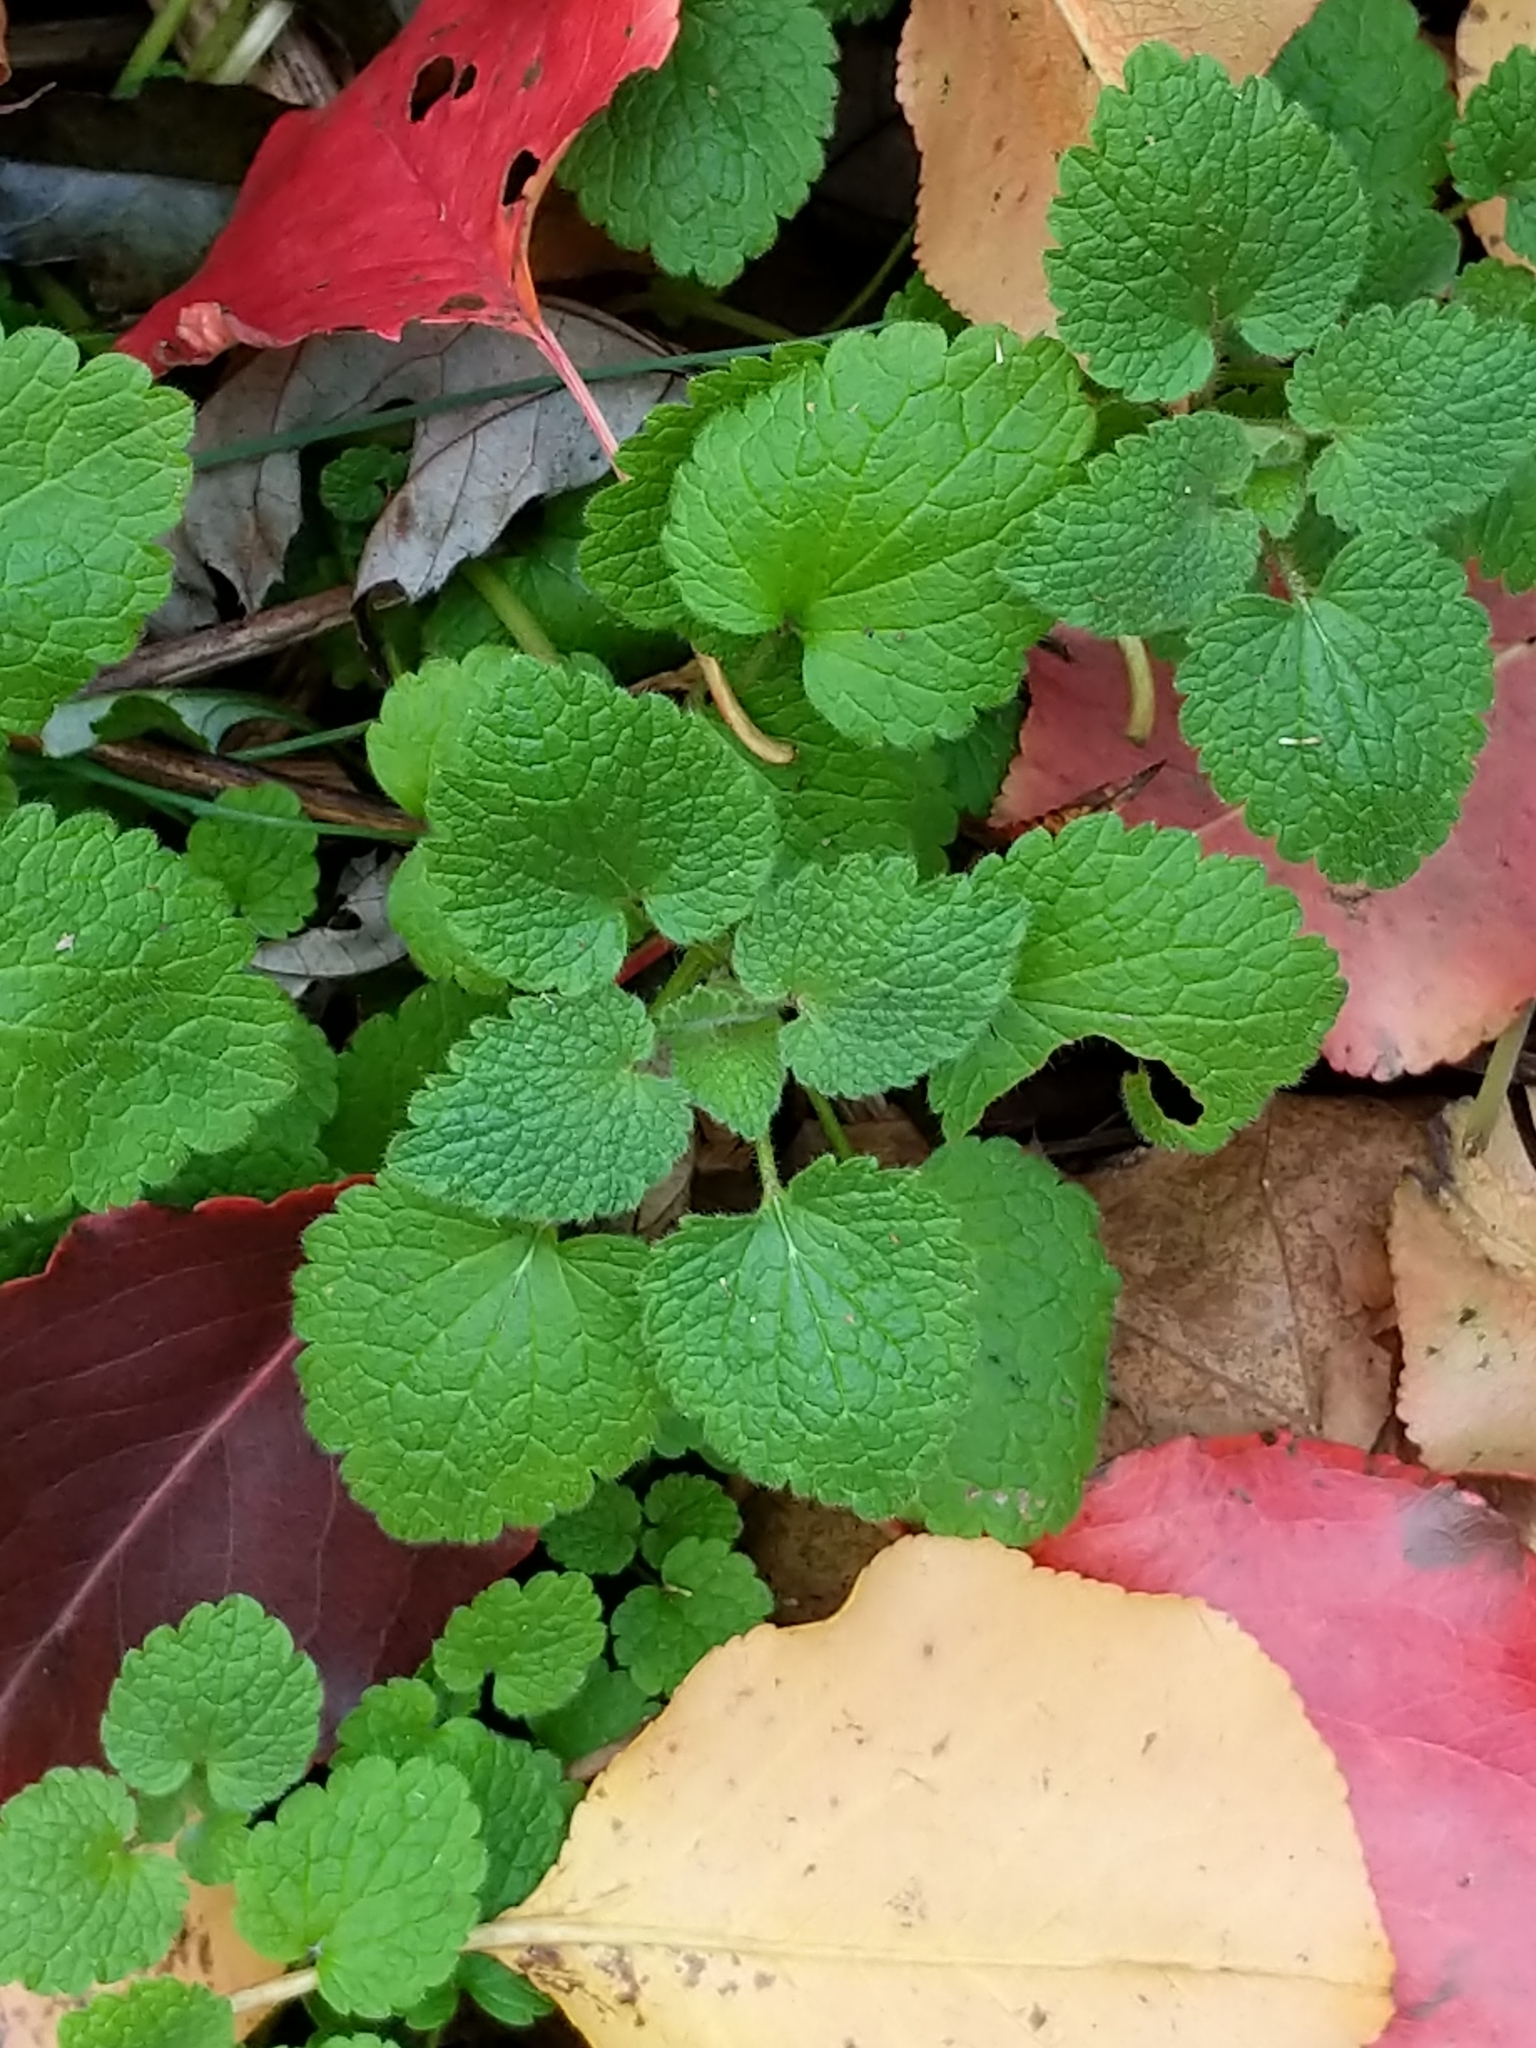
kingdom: Plantae
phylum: Tracheophyta
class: Magnoliopsida
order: Lamiales
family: Lamiaceae
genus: Lamium
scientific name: Lamium purpureum
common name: Red dead-nettle
